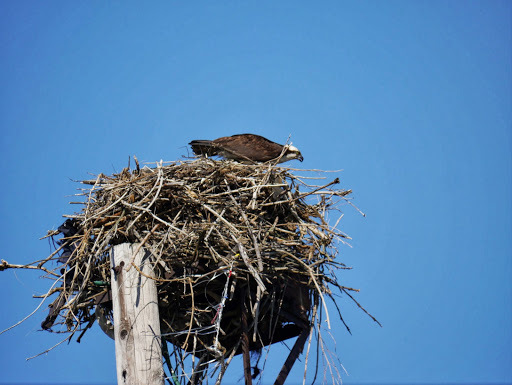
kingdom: Animalia
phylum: Chordata
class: Aves
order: Accipitriformes
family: Pandionidae
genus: Pandion
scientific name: Pandion haliaetus
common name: Osprey
